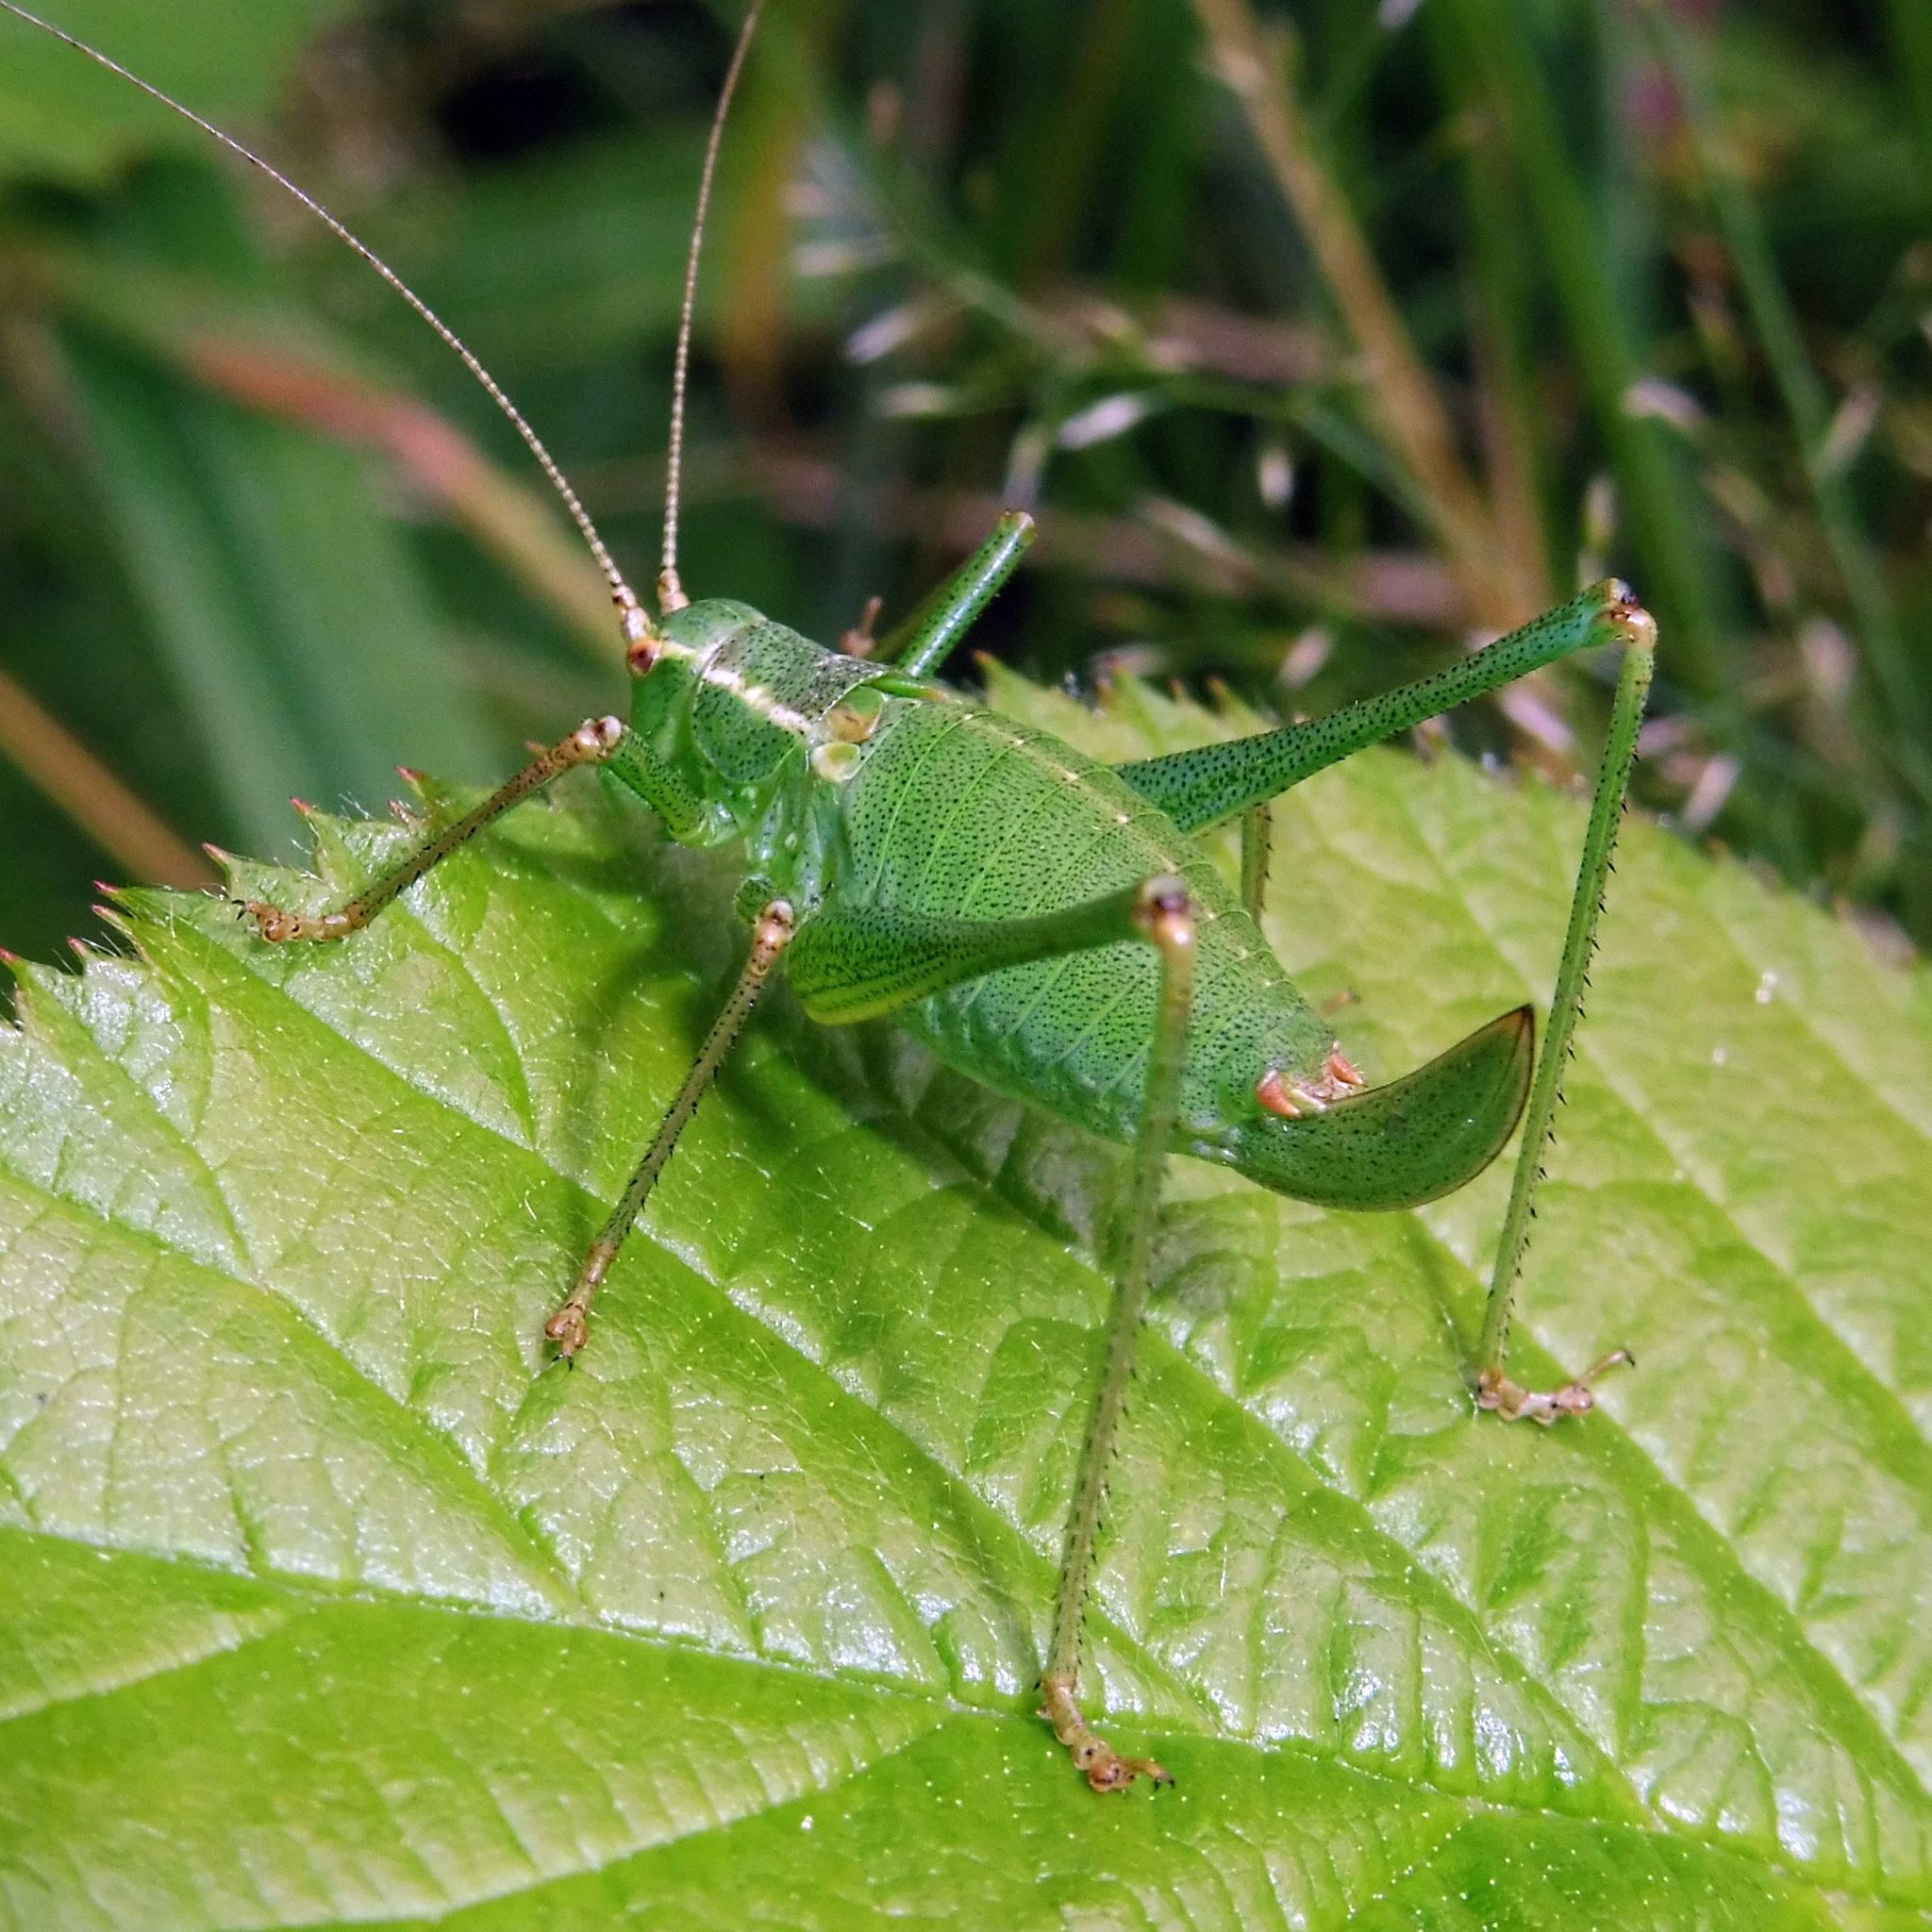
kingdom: Animalia
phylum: Arthropoda
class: Insecta
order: Orthoptera
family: Tettigoniidae
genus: Leptophyes
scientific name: Leptophyes punctatissima
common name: Speckled bush-cricket
